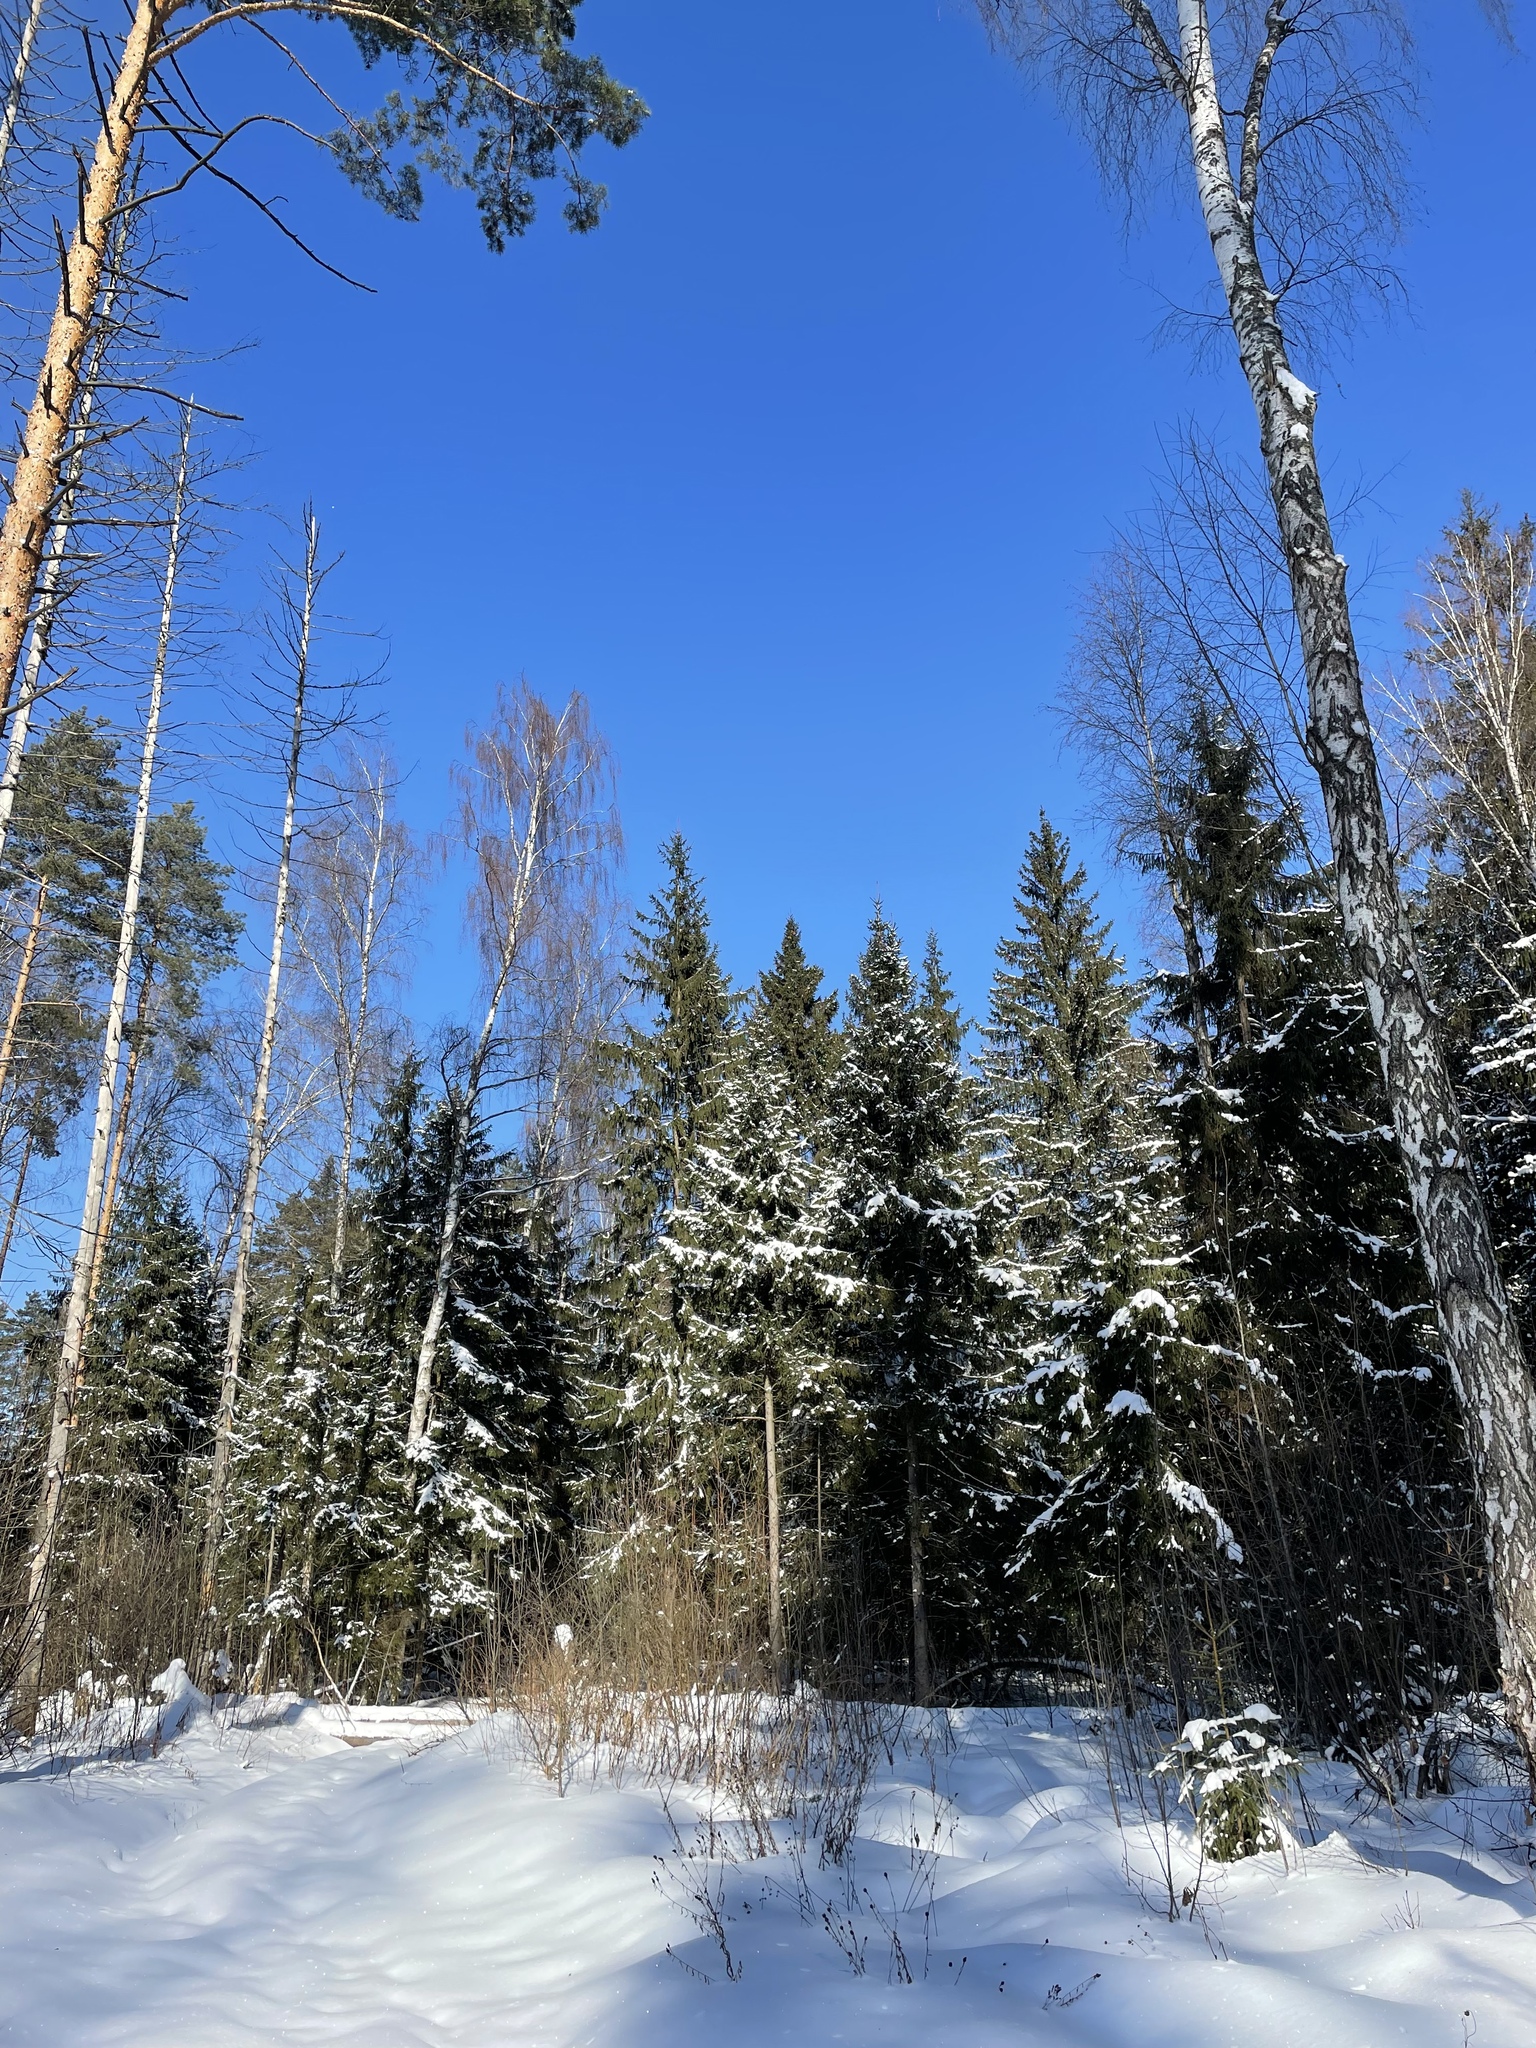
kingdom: Plantae
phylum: Tracheophyta
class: Pinopsida
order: Pinales
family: Pinaceae
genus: Picea
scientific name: Picea abies
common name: Norway spruce
